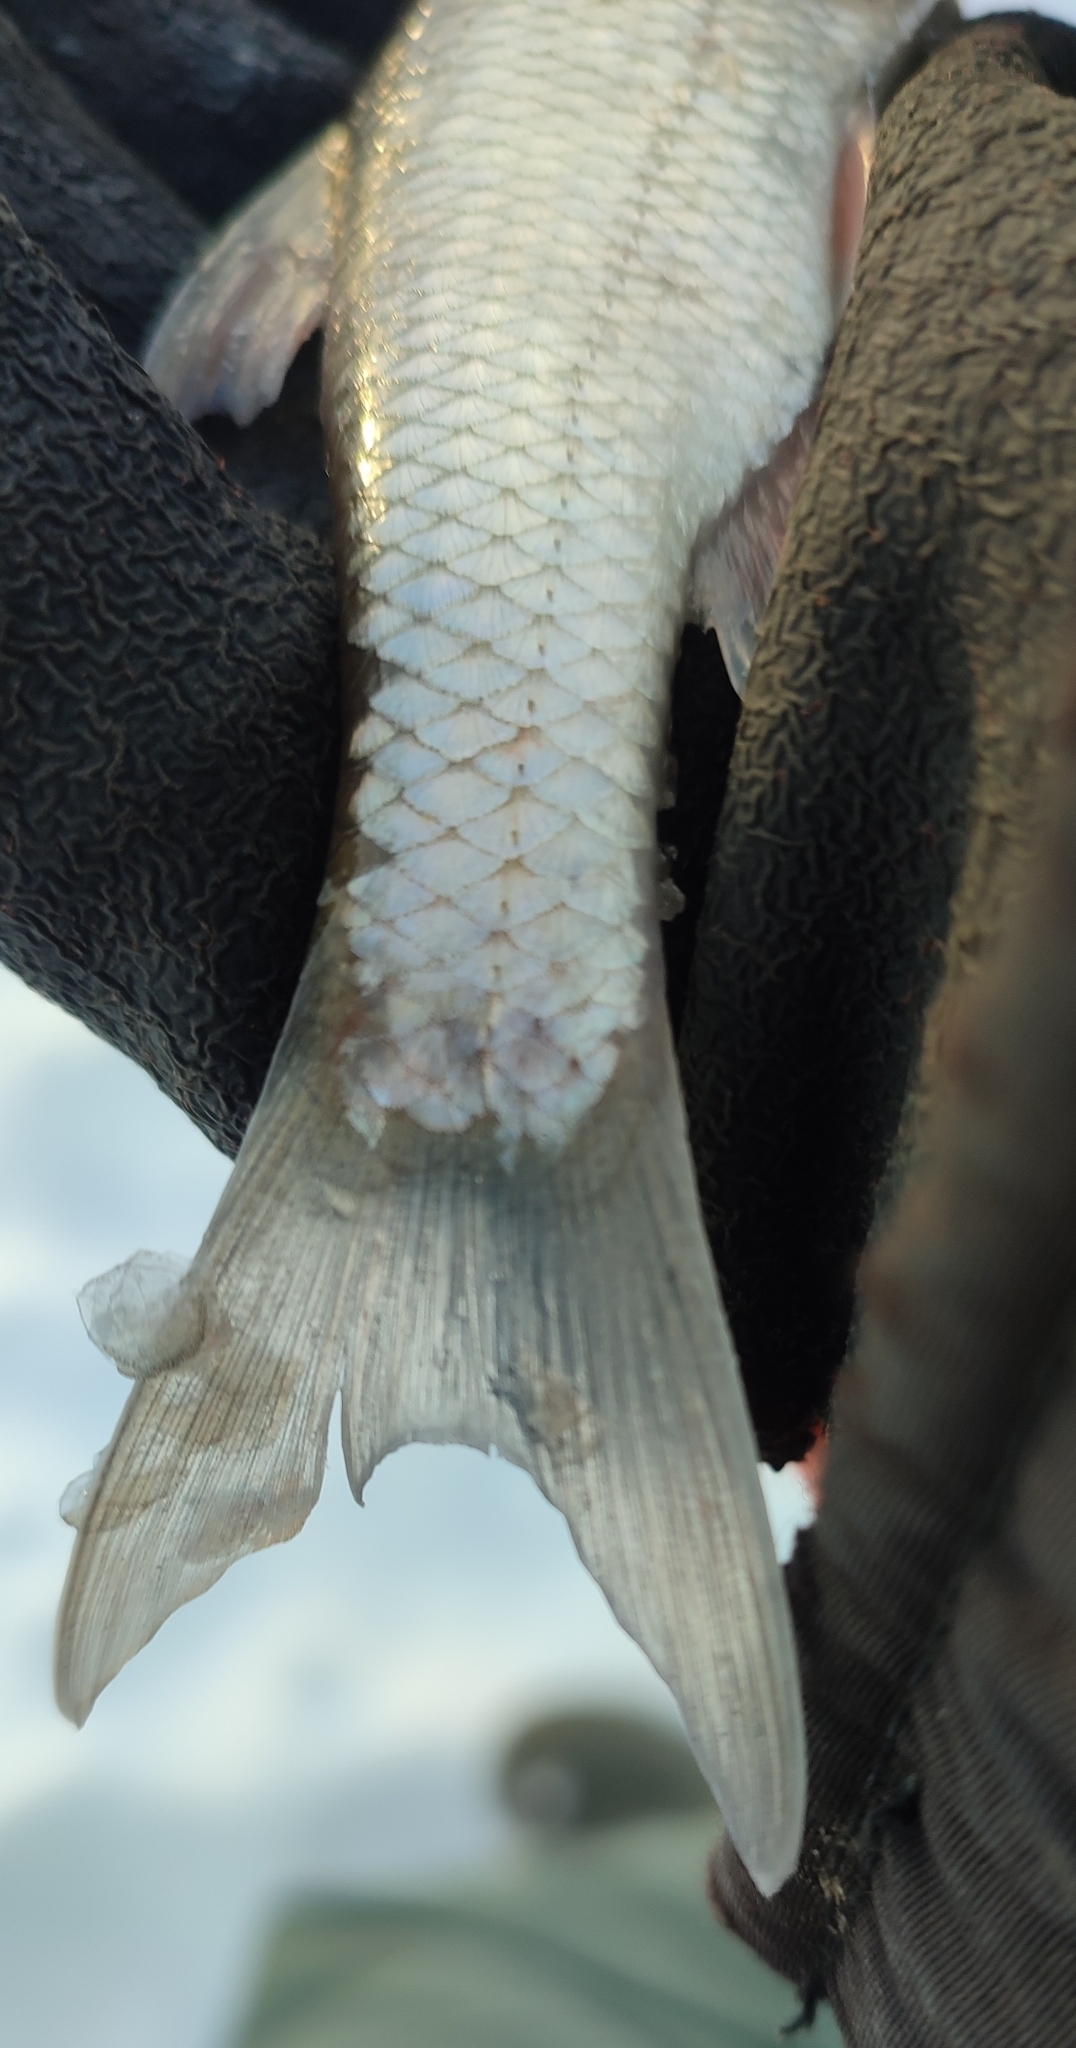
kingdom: Animalia
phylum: Chordata
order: Cypriniformes
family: Cyprinidae
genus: Leuciscus
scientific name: Leuciscus leuciscus
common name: Dace
